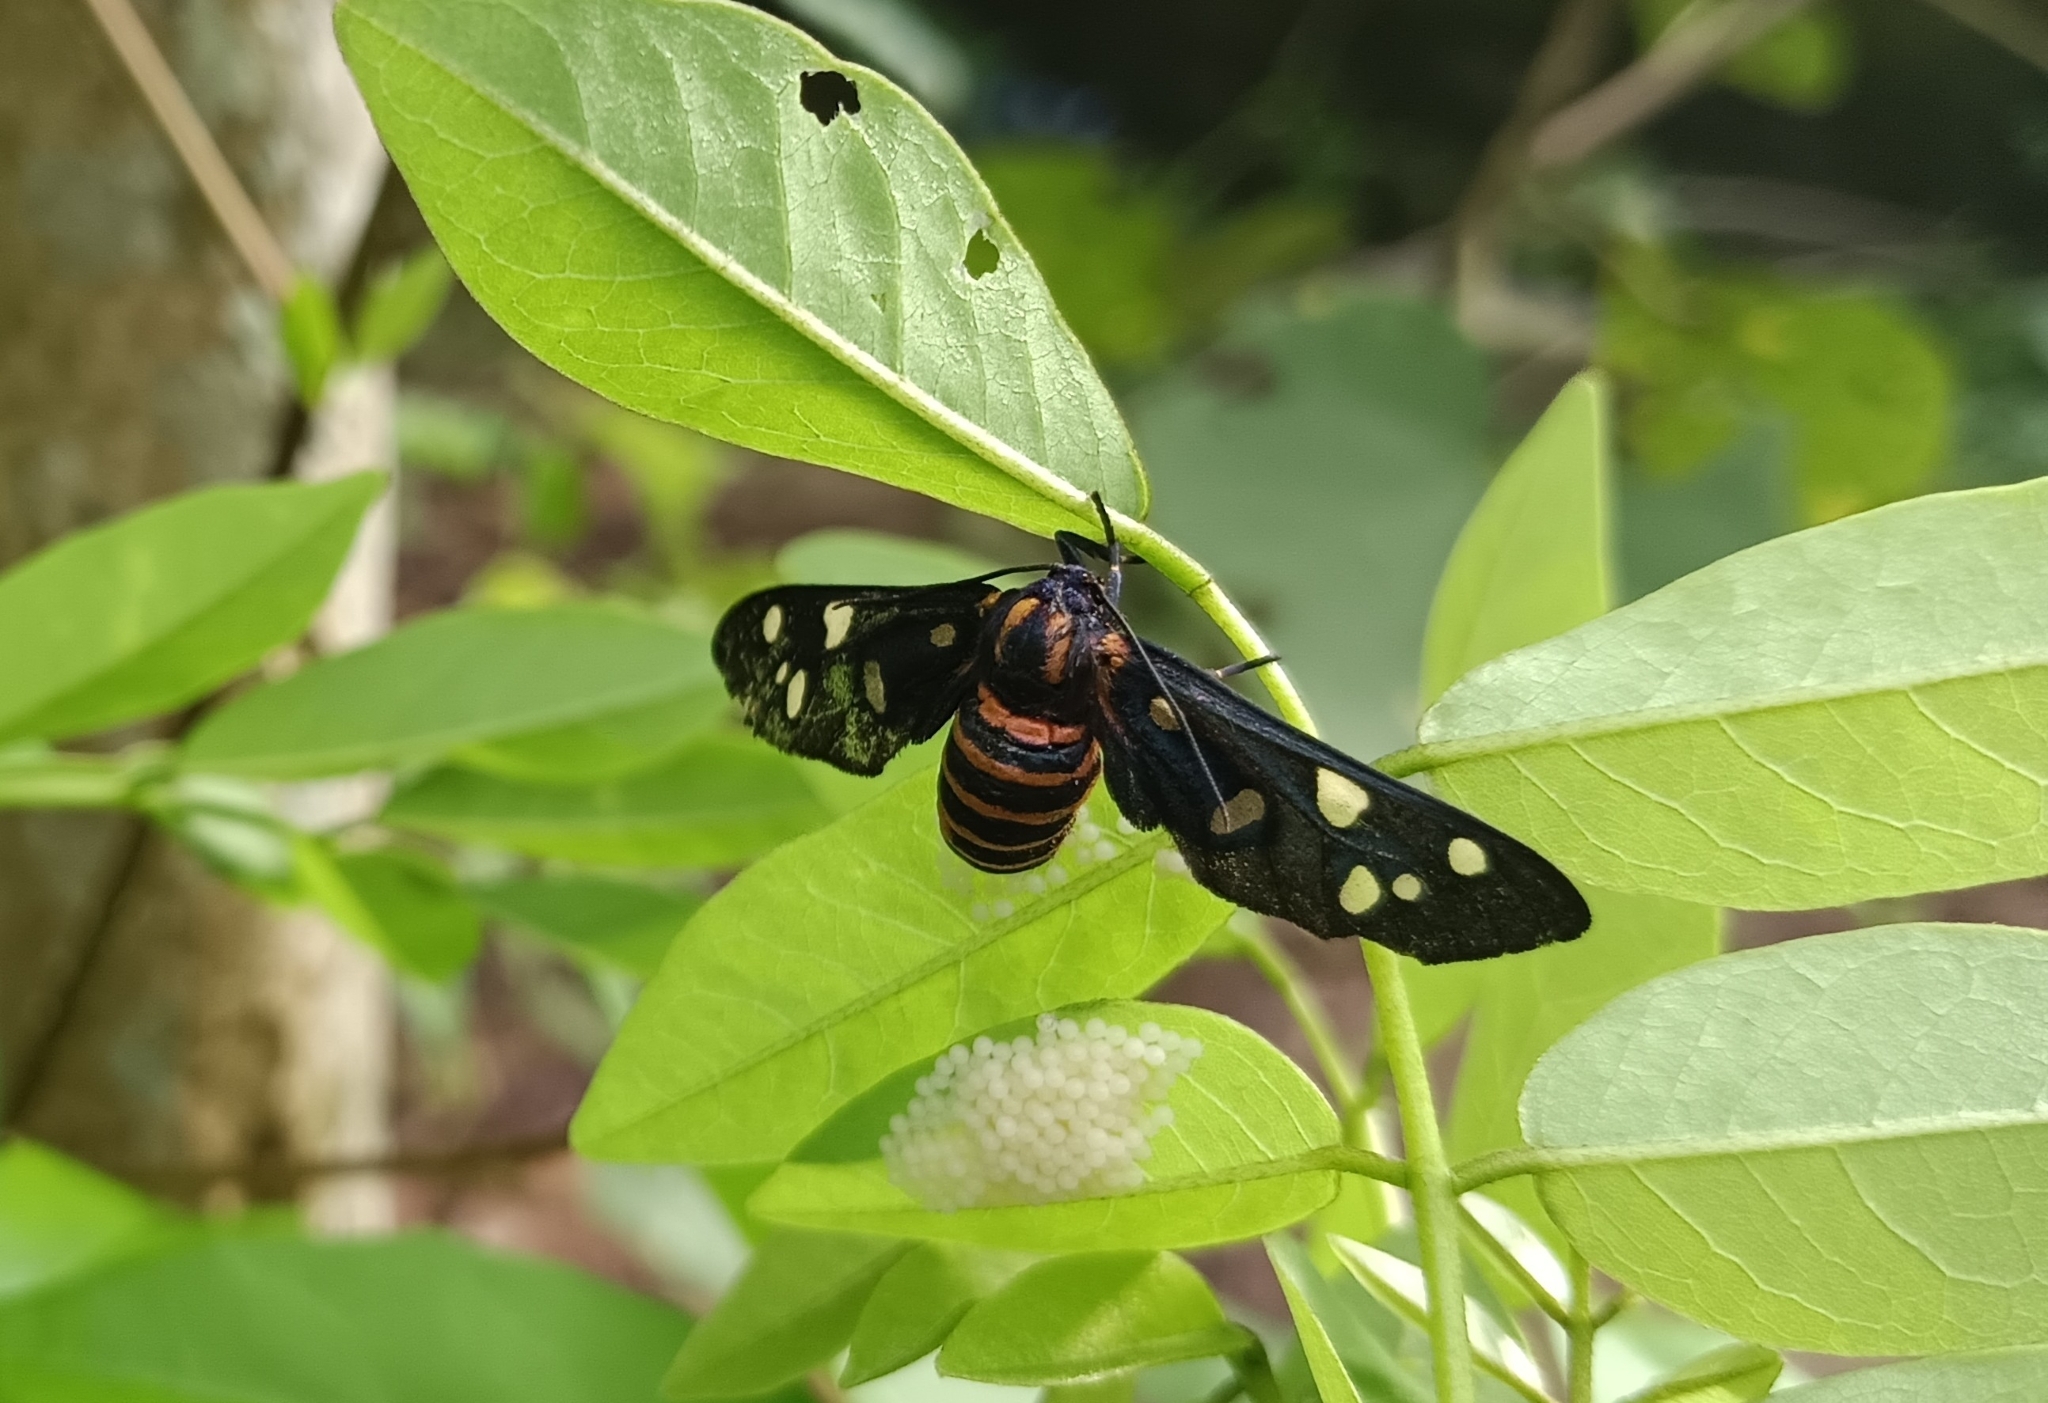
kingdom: Animalia
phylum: Arthropoda
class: Insecta
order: Lepidoptera
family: Erebidae
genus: Amata
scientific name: Amata passalis
